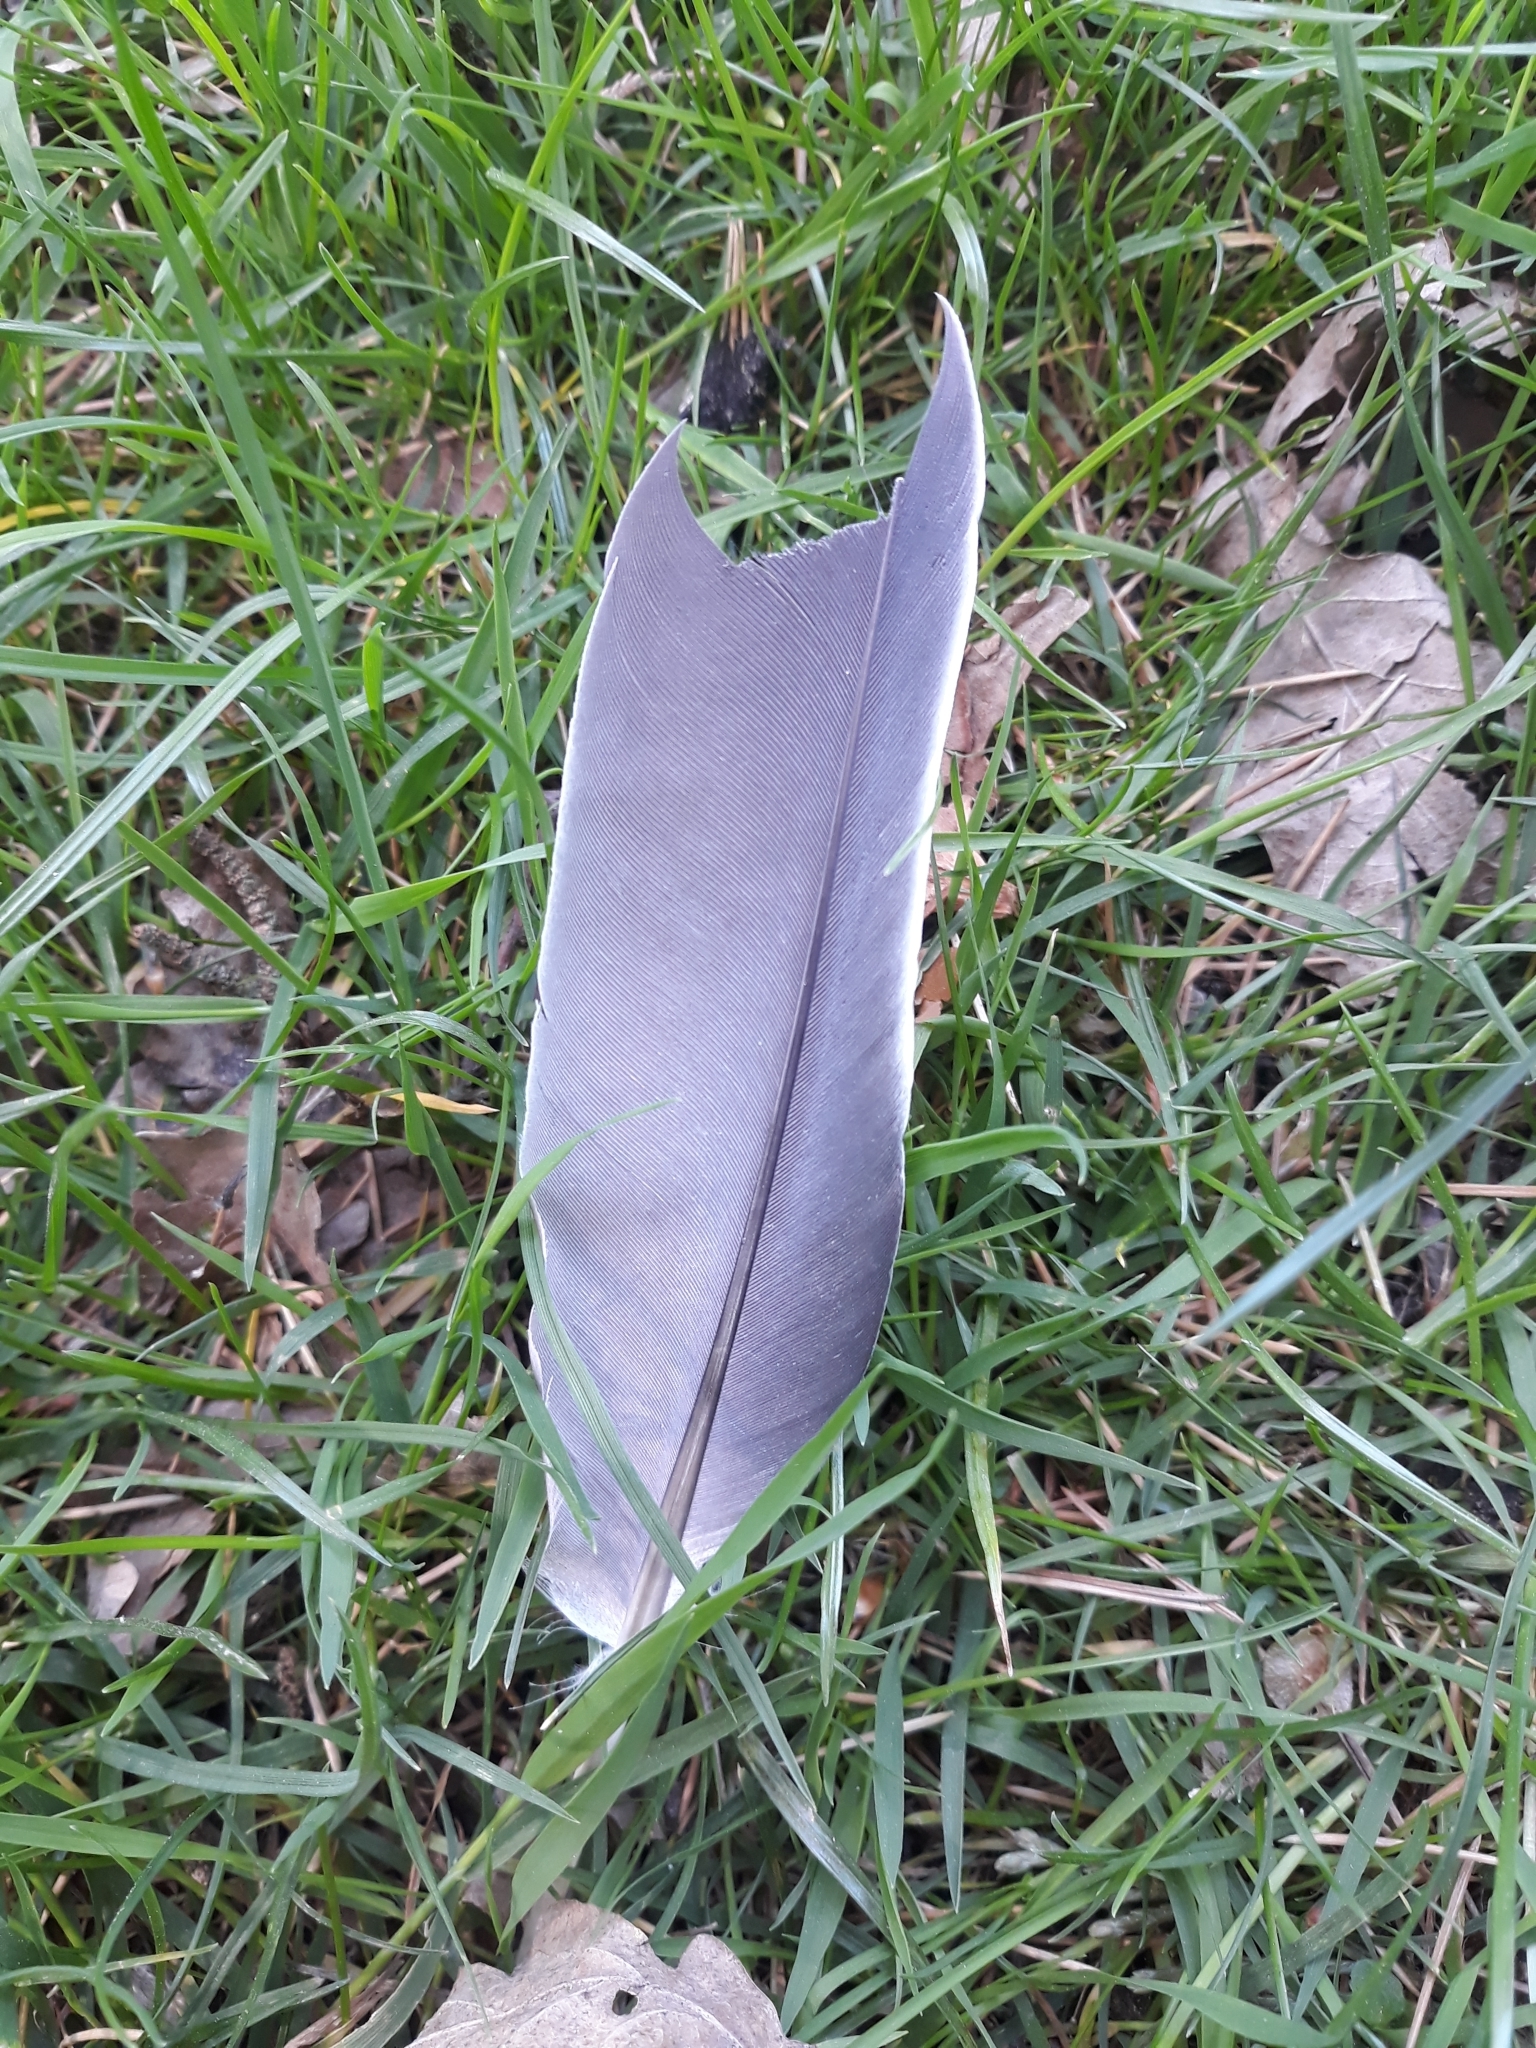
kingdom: Animalia
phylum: Chordata
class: Aves
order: Columbiformes
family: Columbidae
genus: Columba
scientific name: Columba palumbus
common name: Common wood pigeon
